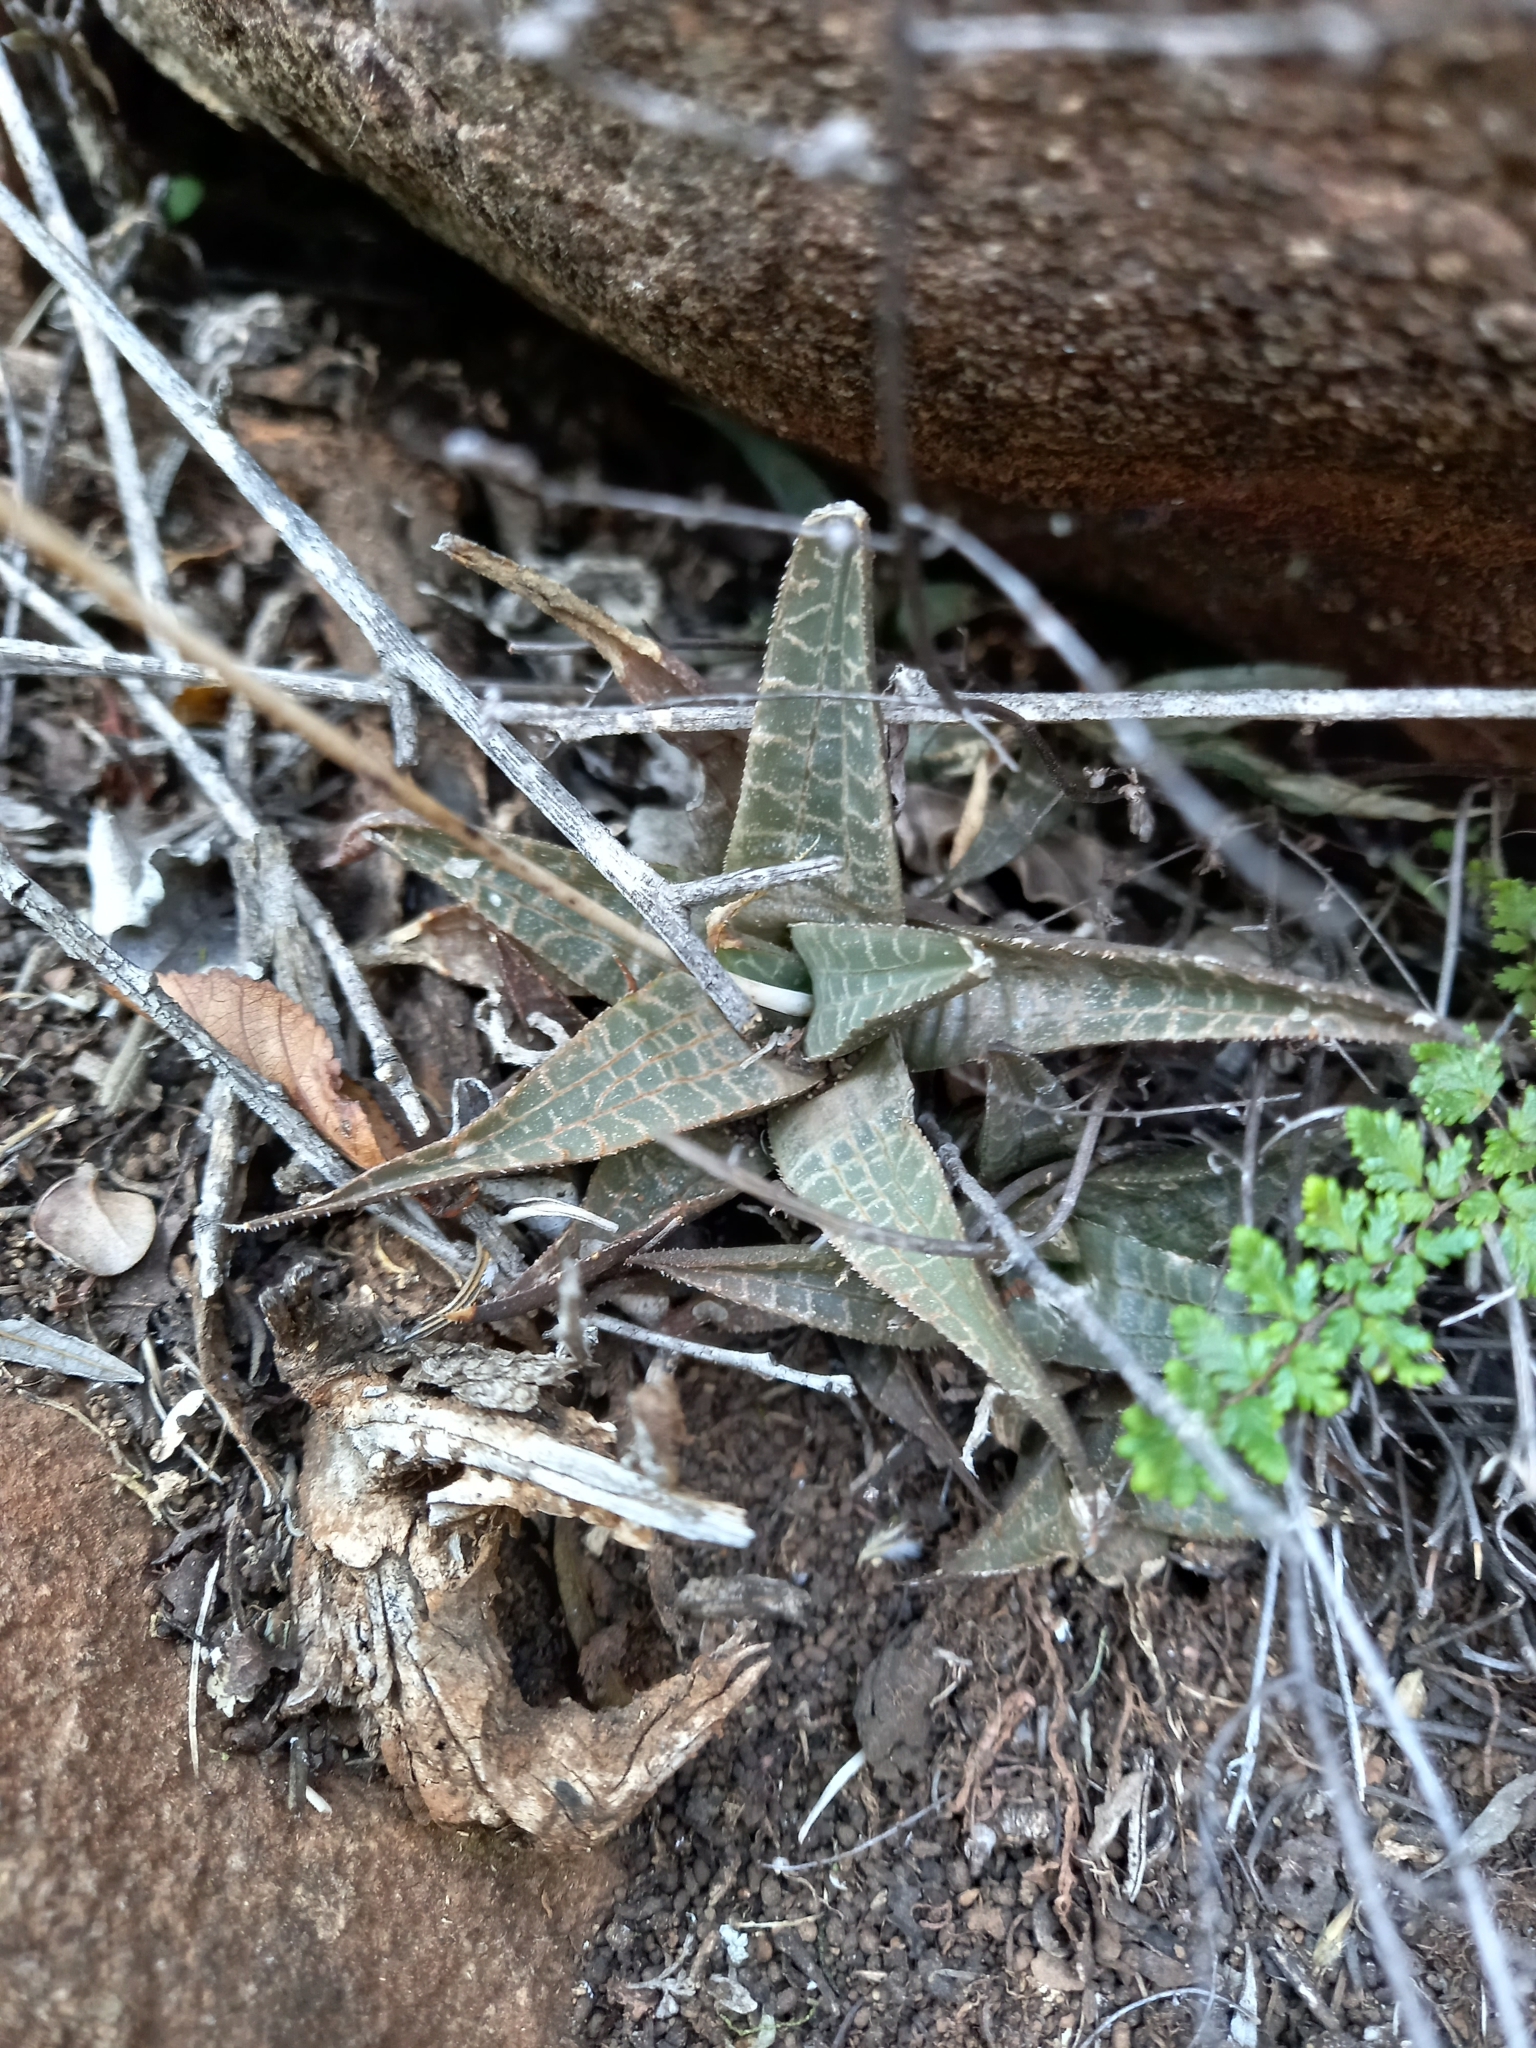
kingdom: Plantae
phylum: Tracheophyta
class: Liliopsida
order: Asparagales
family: Asphodelaceae
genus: Haworthiopsis
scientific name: Haworthiopsis tessellata
